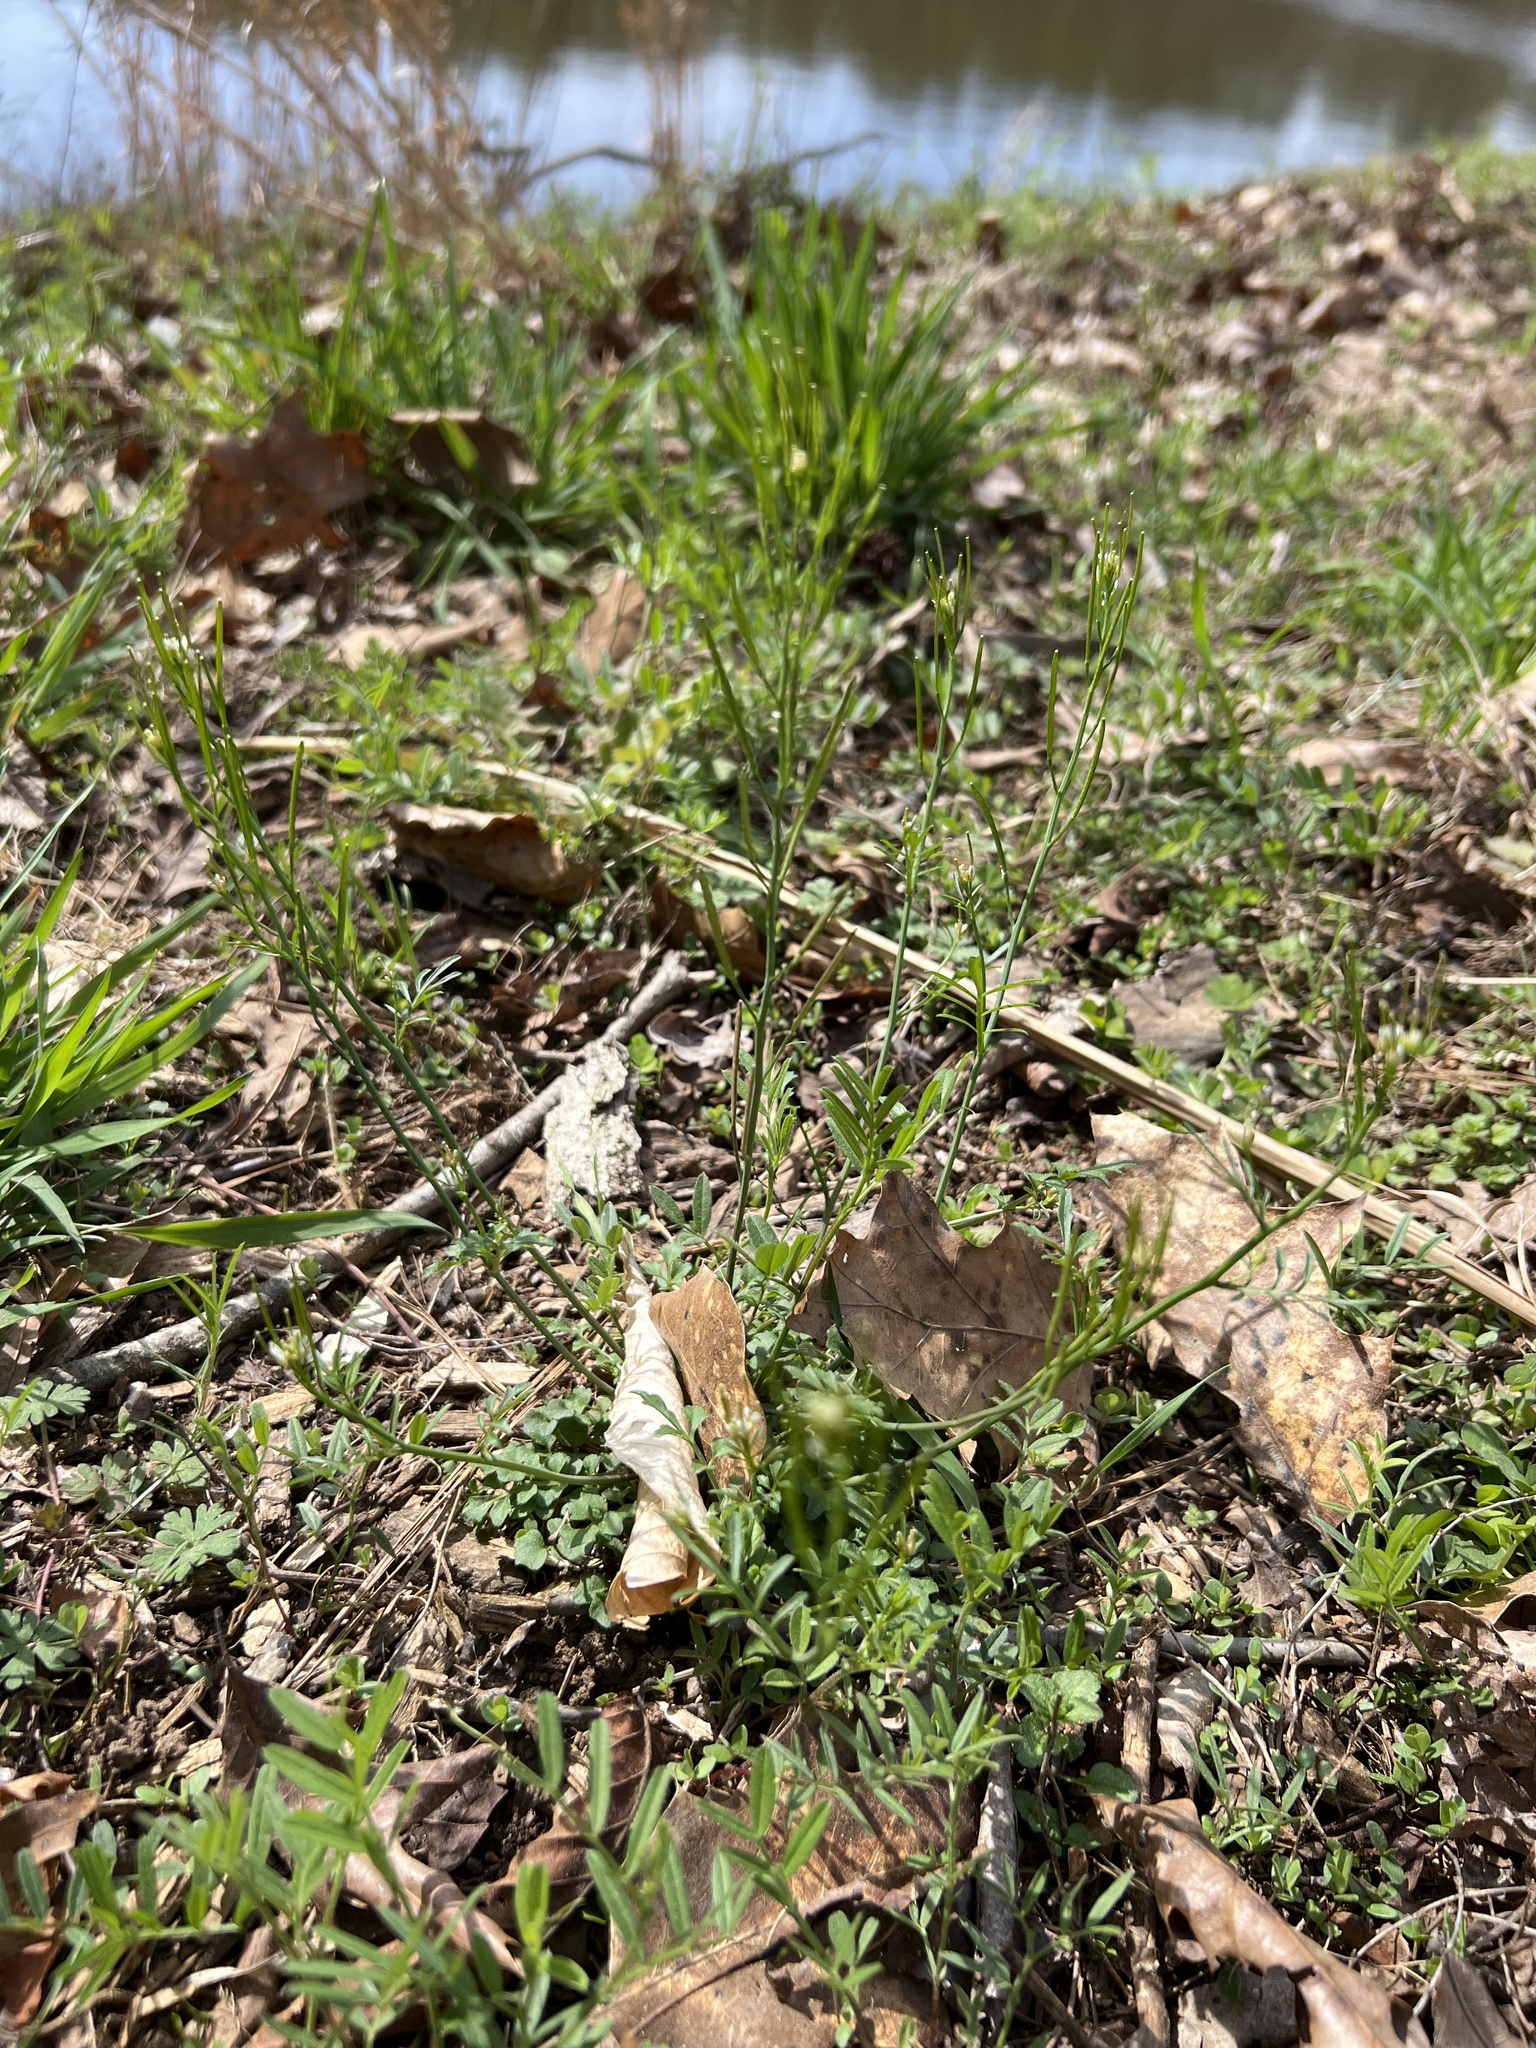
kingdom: Plantae
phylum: Tracheophyta
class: Magnoliopsida
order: Brassicales
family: Brassicaceae
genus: Cardamine
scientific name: Cardamine hirsuta
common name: Hairy bittercress
